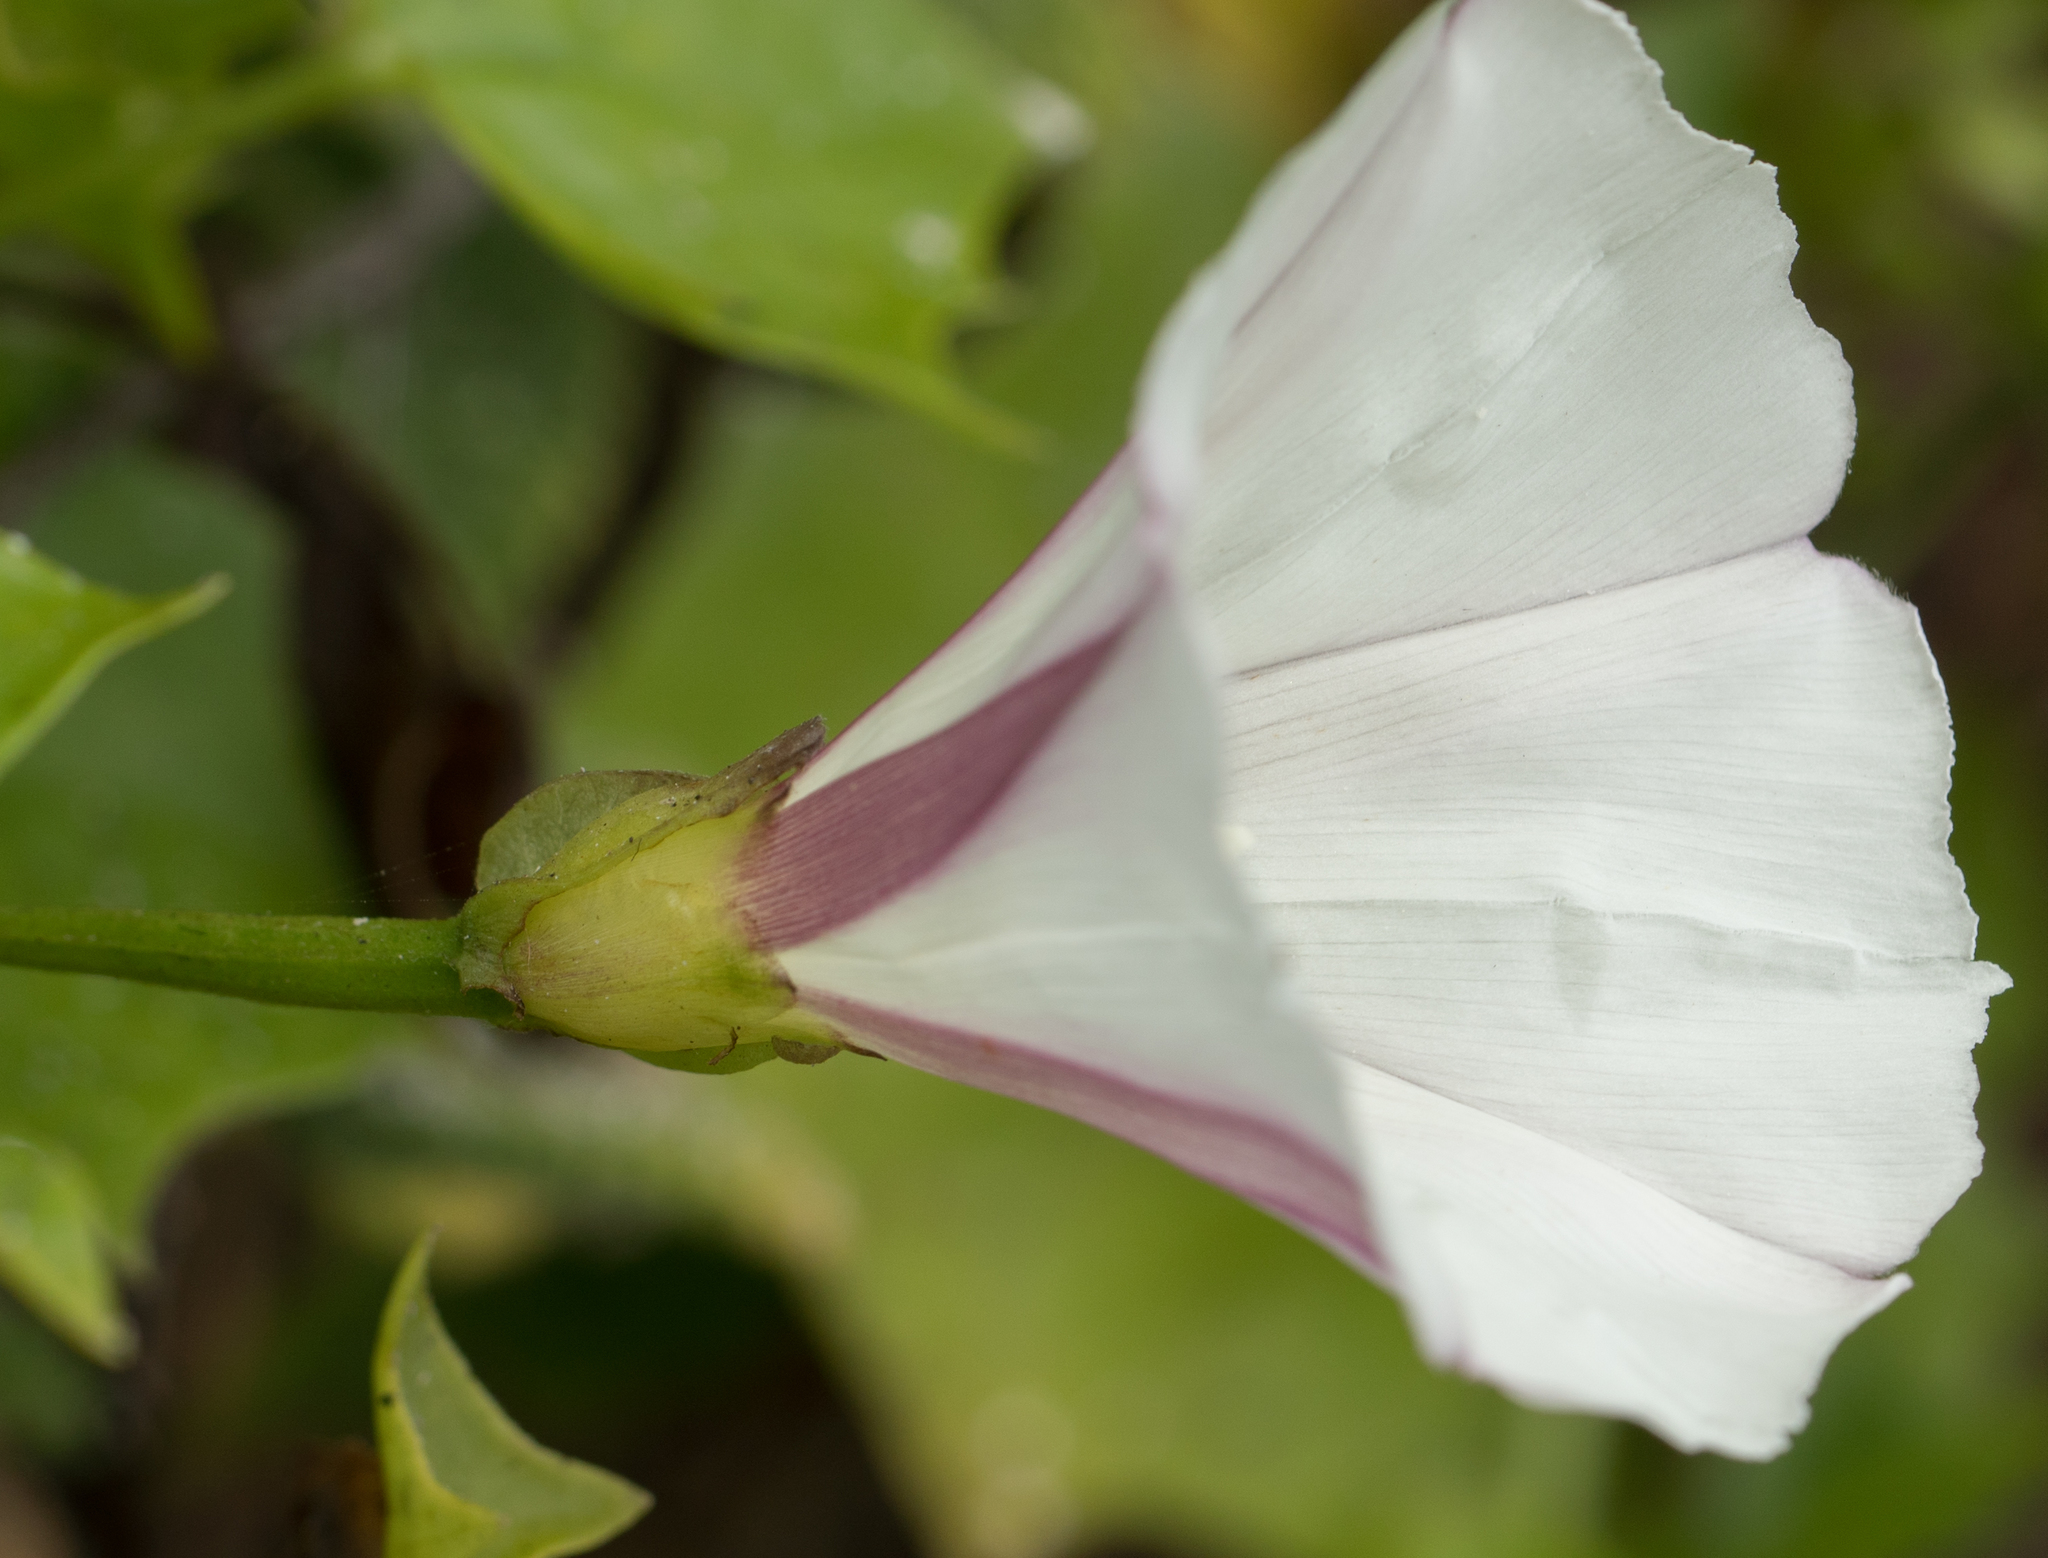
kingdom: Plantae
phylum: Tracheophyta
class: Magnoliopsida
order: Solanales
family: Convolvulaceae
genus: Calystegia
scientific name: Calystegia macrostegia
